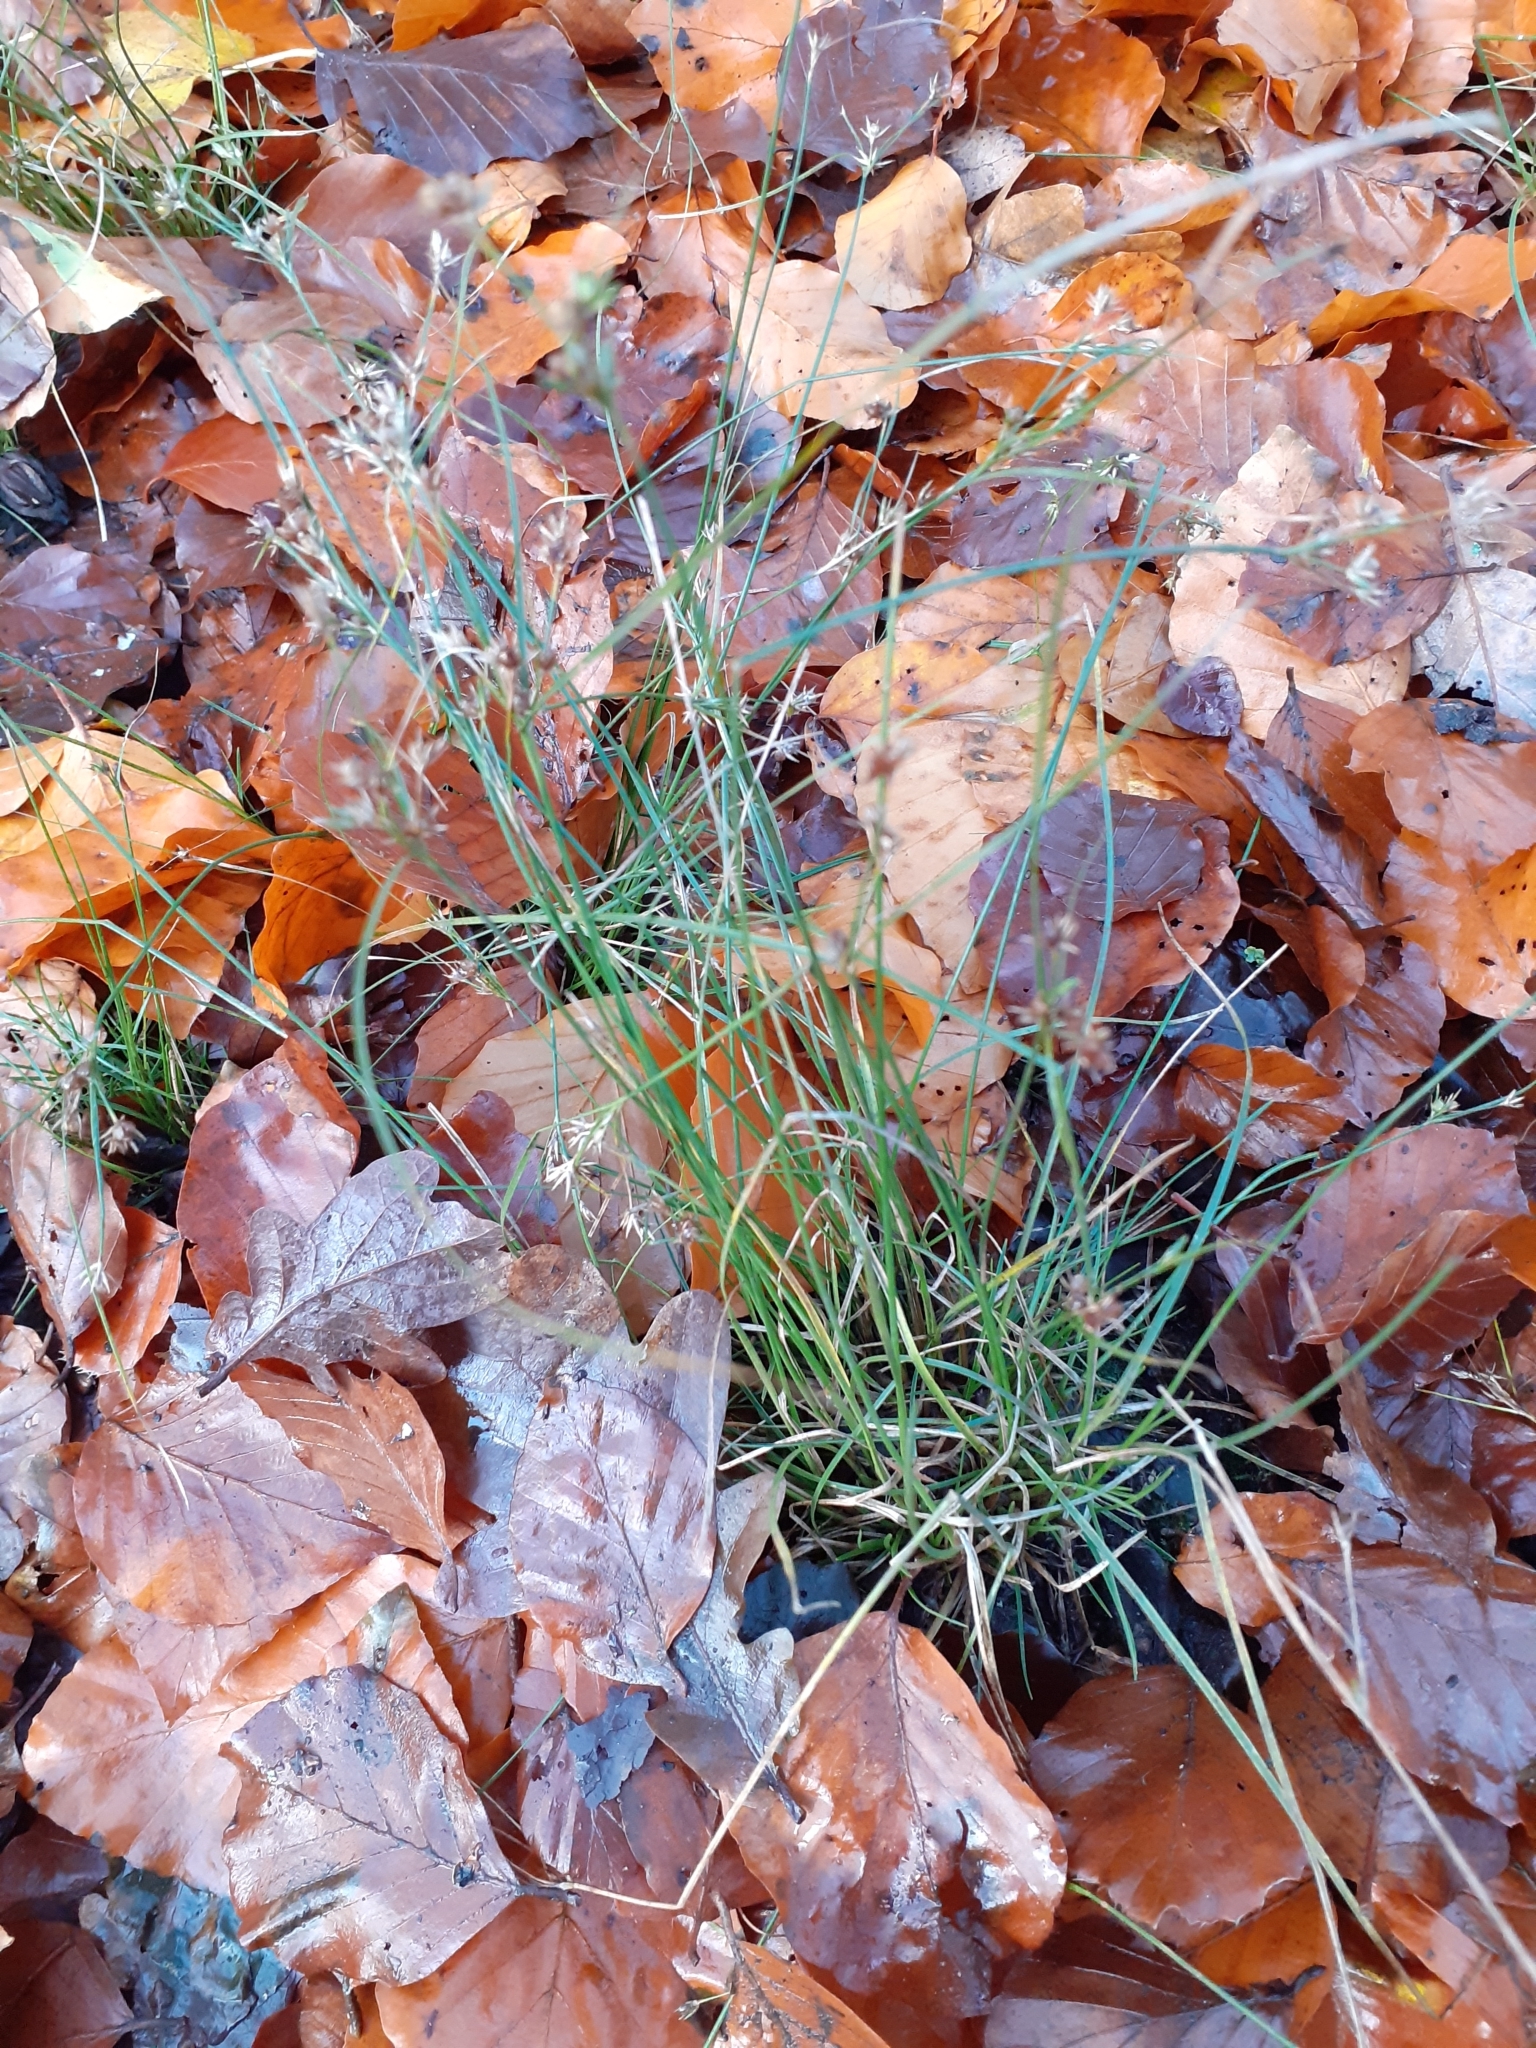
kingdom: Plantae
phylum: Tracheophyta
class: Liliopsida
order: Poales
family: Juncaceae
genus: Juncus
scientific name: Juncus tenuis
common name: Slender rush
